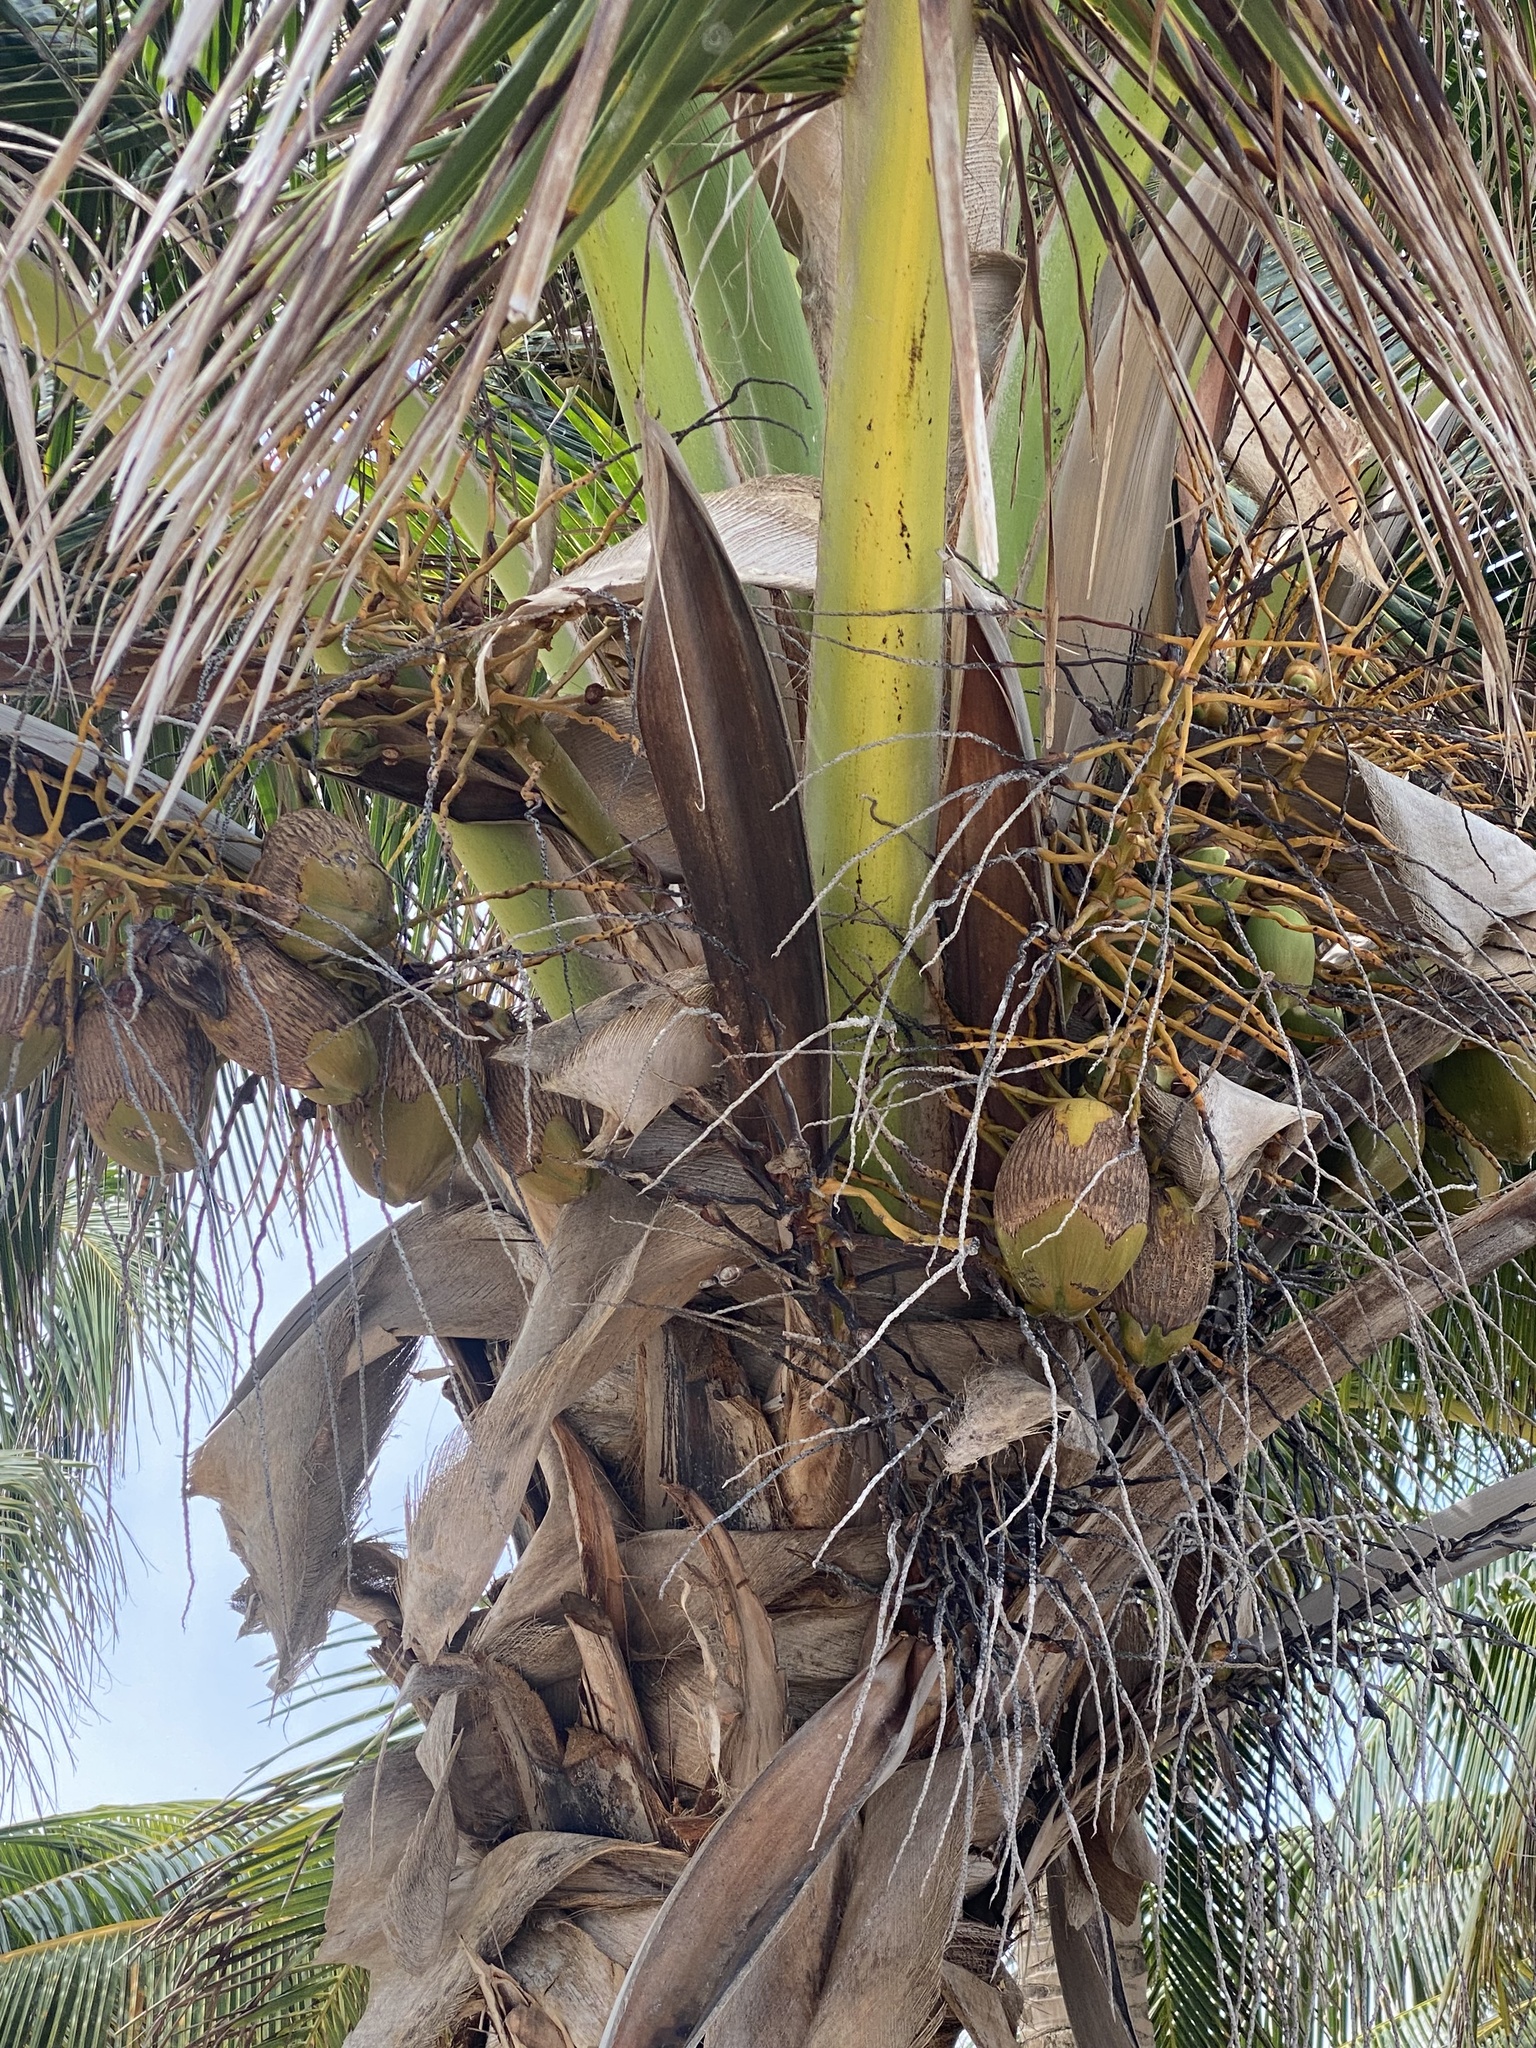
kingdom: Plantae
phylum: Tracheophyta
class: Liliopsida
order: Arecales
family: Arecaceae
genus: Cocos
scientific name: Cocos nucifera
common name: Coconut palm
